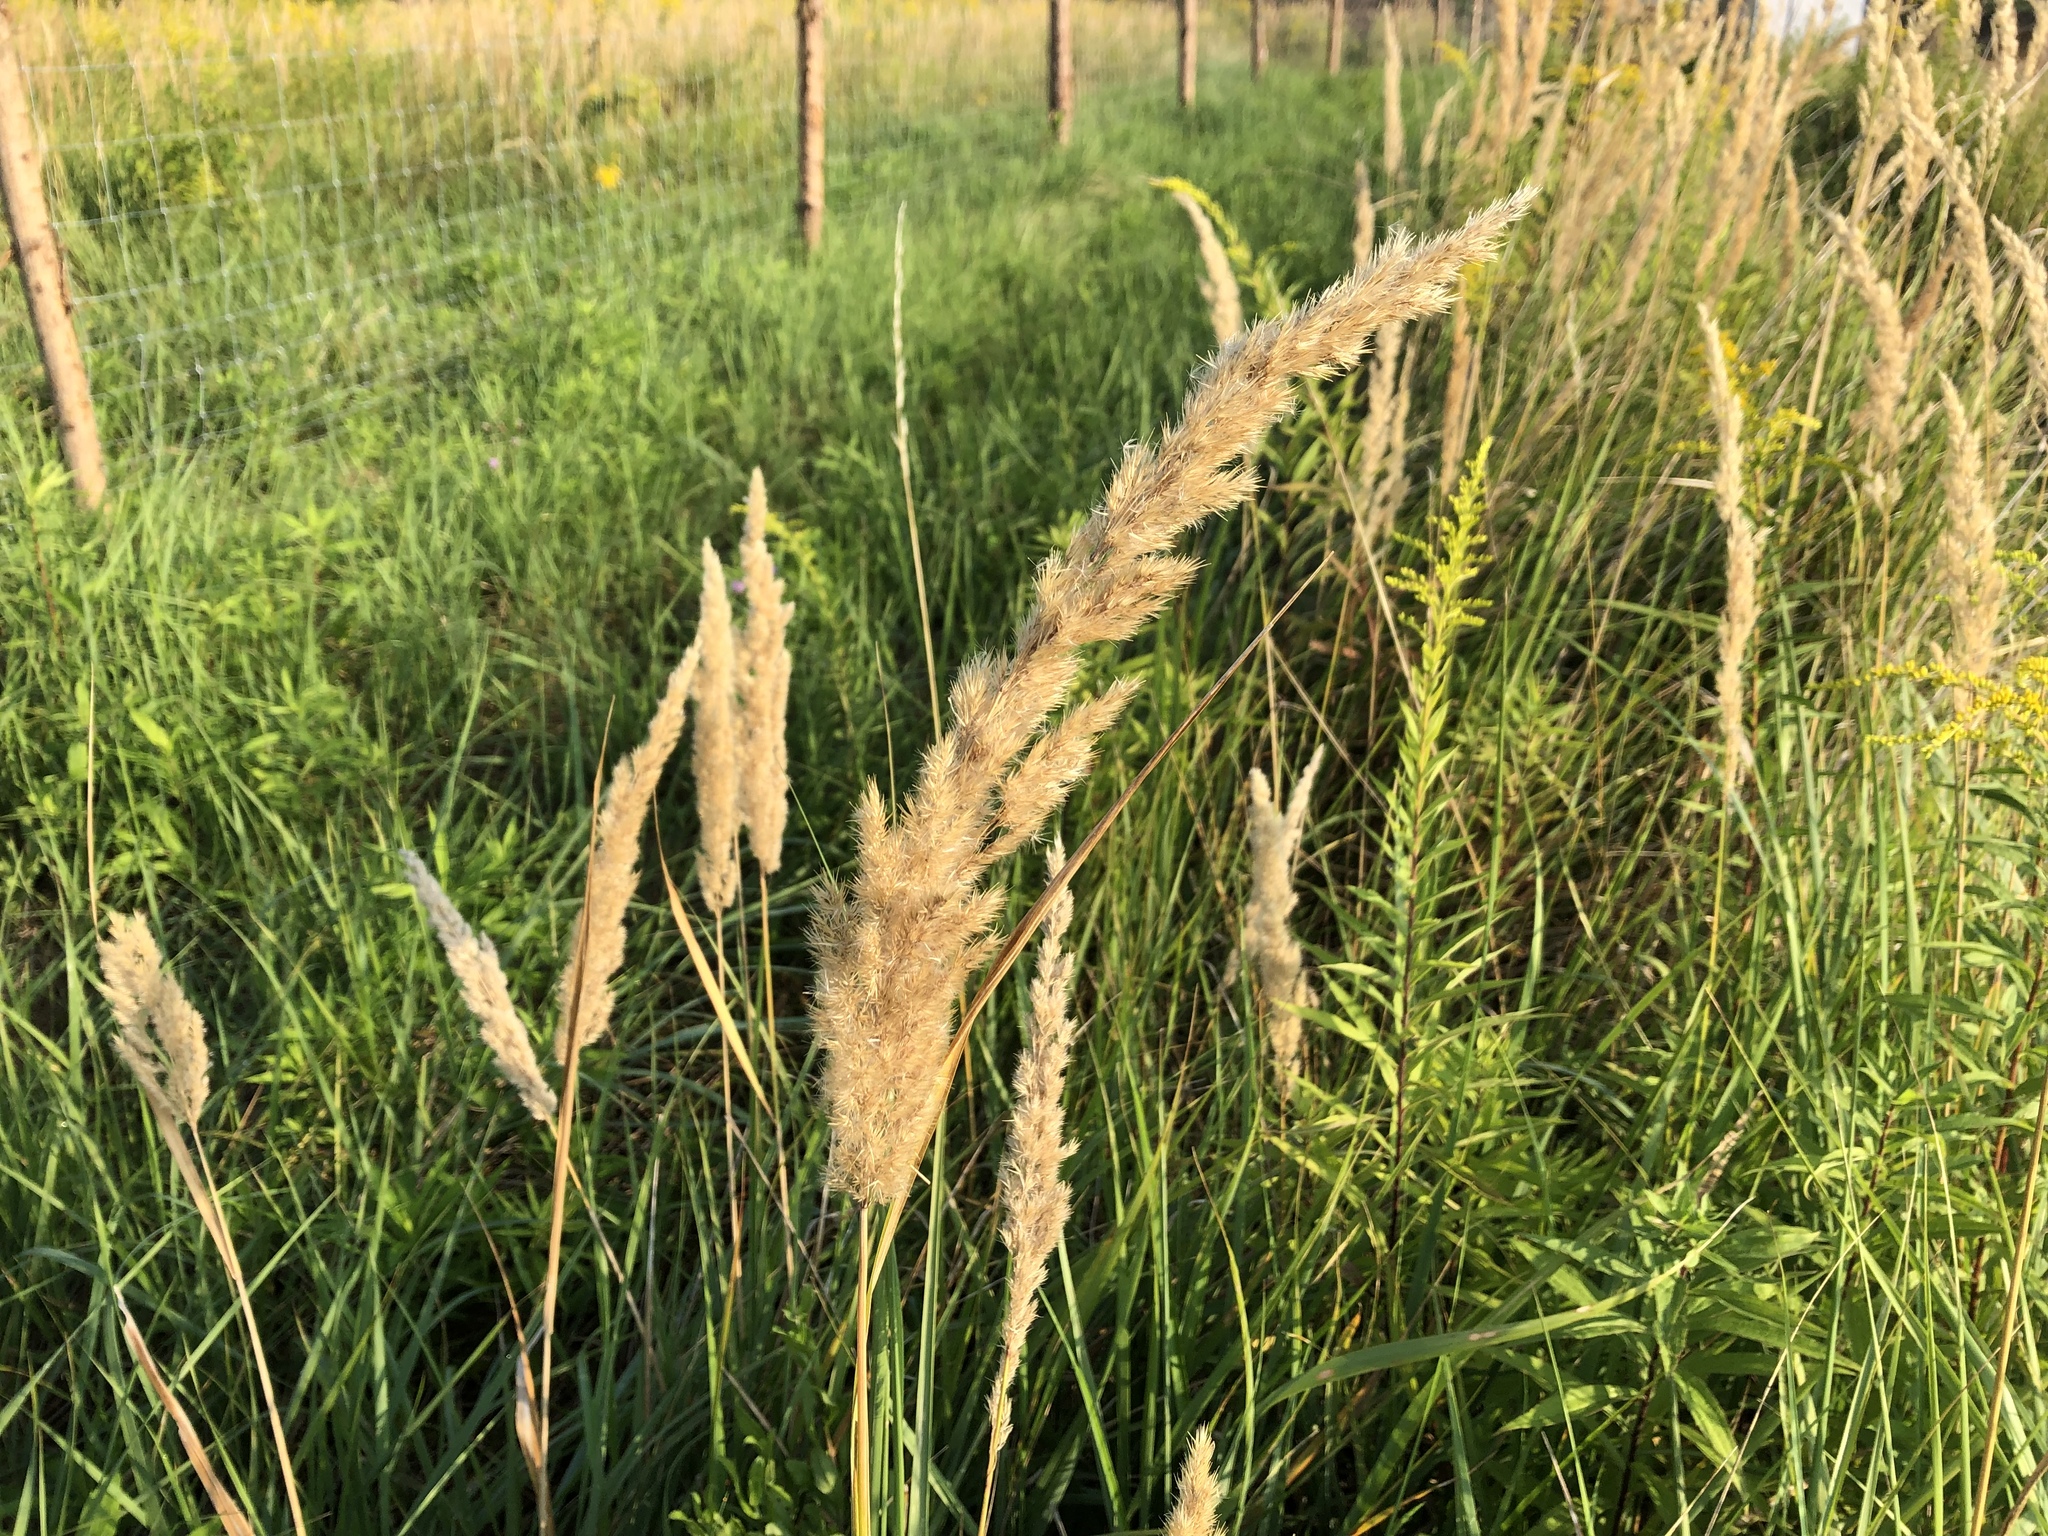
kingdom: Plantae
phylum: Tracheophyta
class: Liliopsida
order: Poales
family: Poaceae
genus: Calamagrostis
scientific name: Calamagrostis epigejos
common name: Wood small-reed
